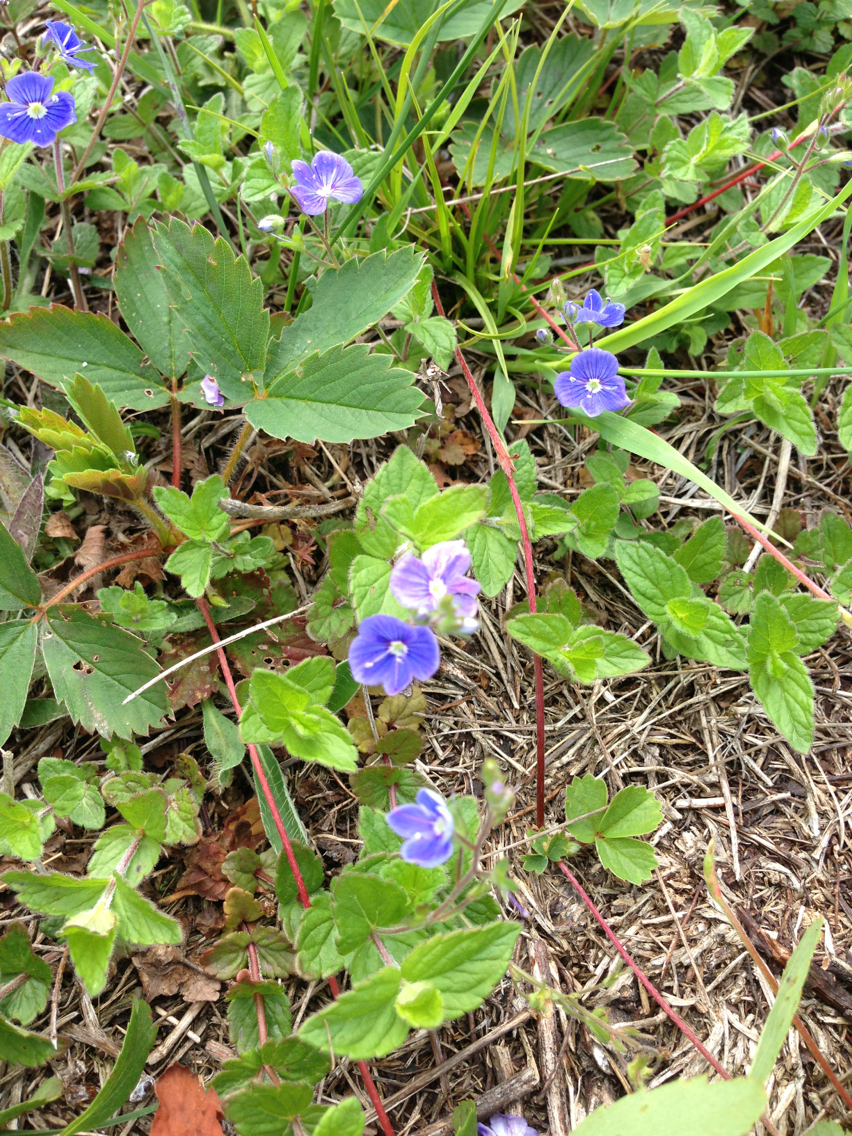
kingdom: Plantae
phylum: Tracheophyta
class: Magnoliopsida
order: Lamiales
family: Plantaginaceae
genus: Veronica
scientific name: Veronica chamaedrys
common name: Germander speedwell
